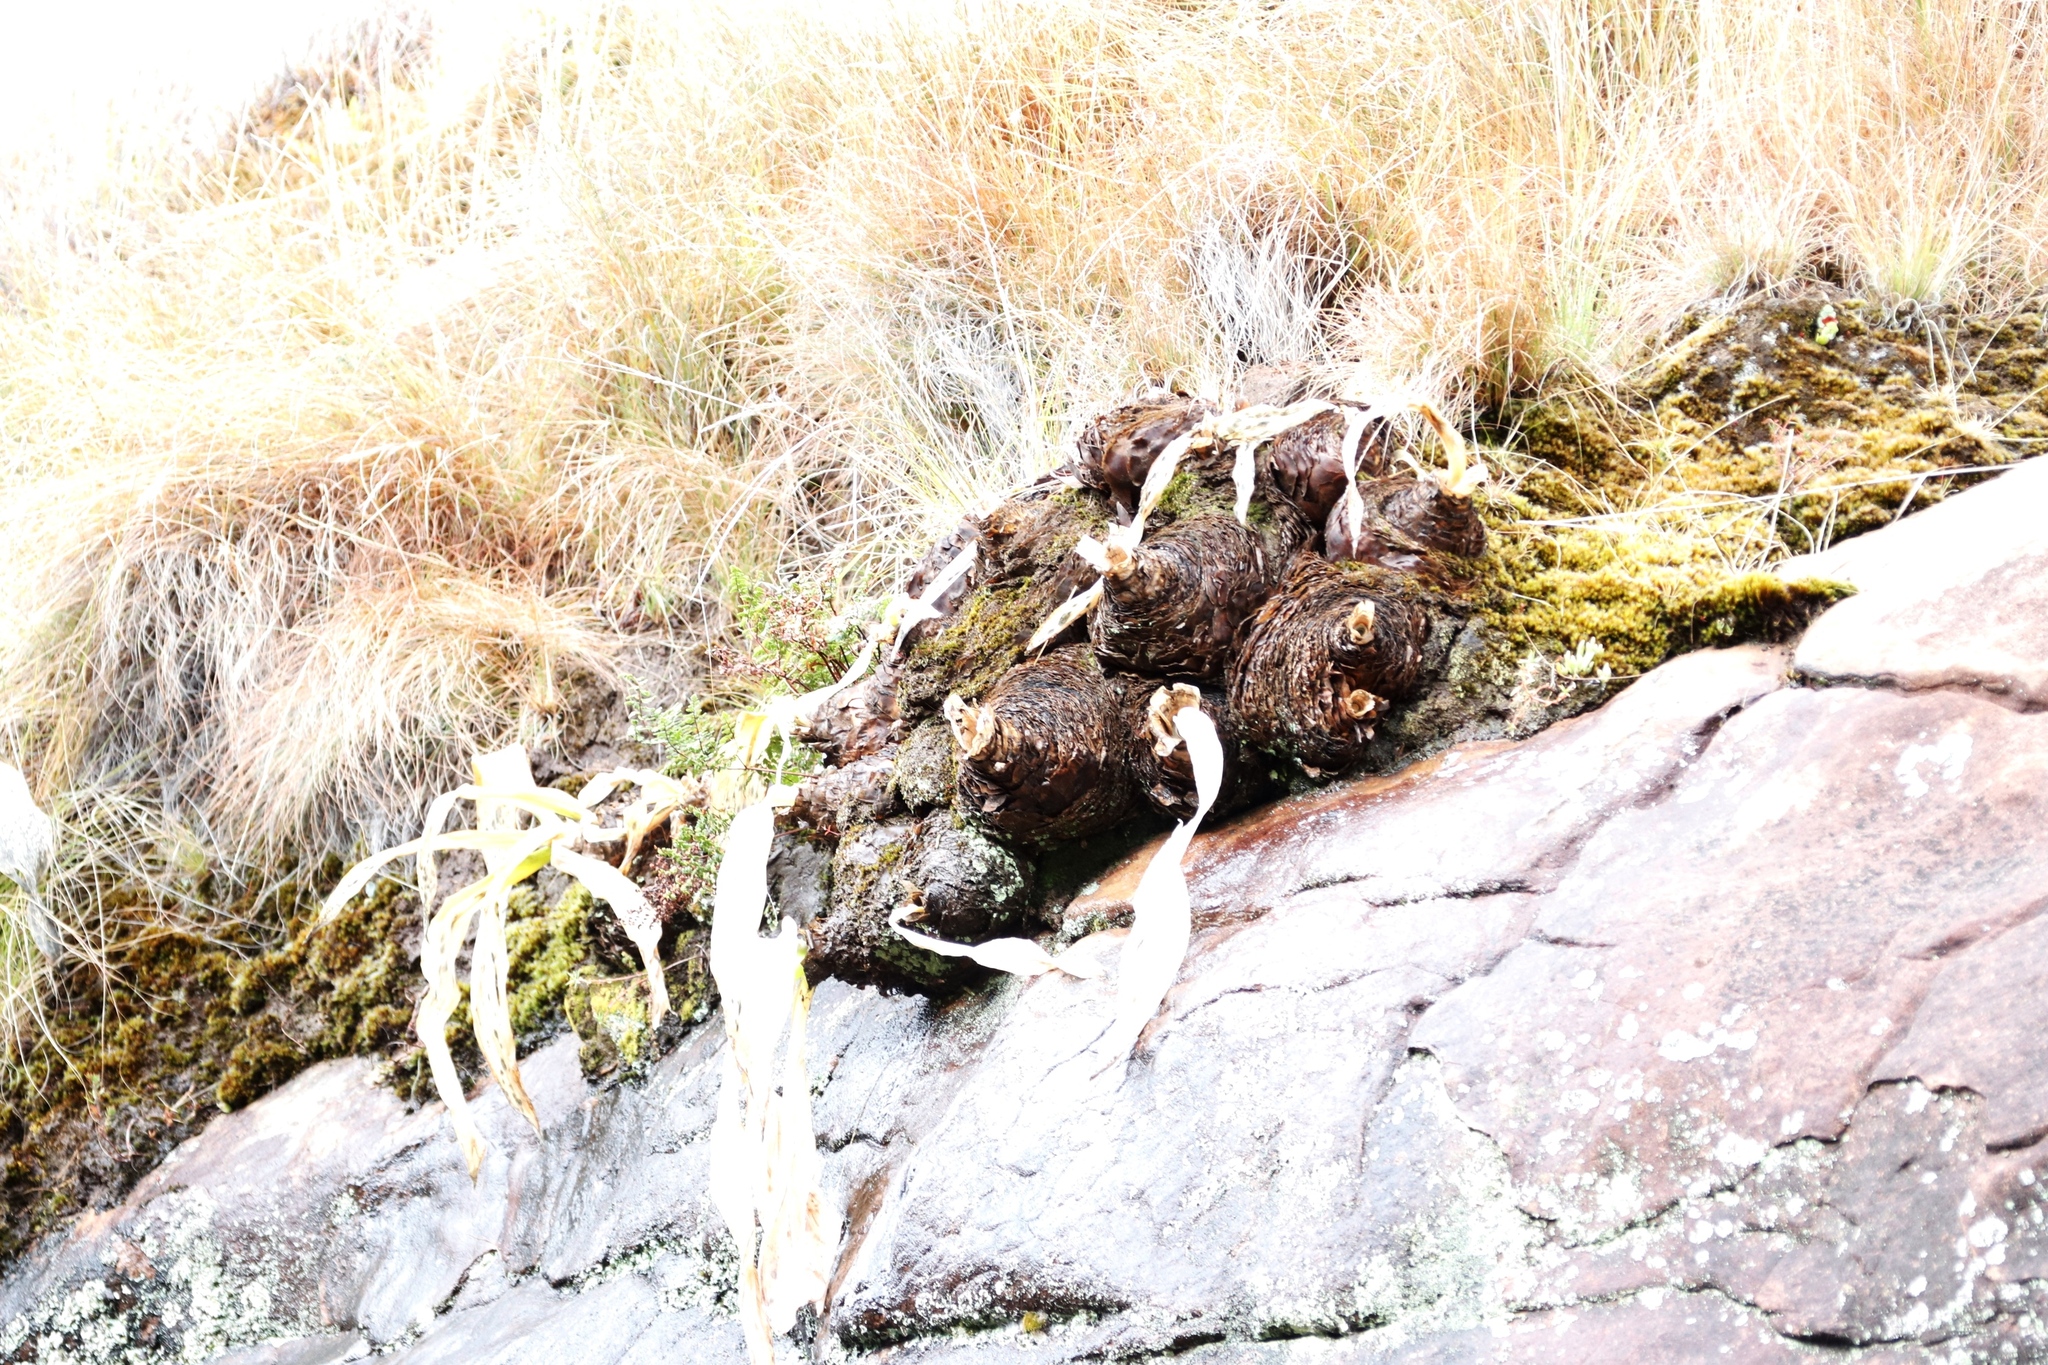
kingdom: Plantae
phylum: Tracheophyta
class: Liliopsida
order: Asparagales
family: Asparagaceae
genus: Merwilla
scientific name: Merwilla plumbea
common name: Blue-squill
